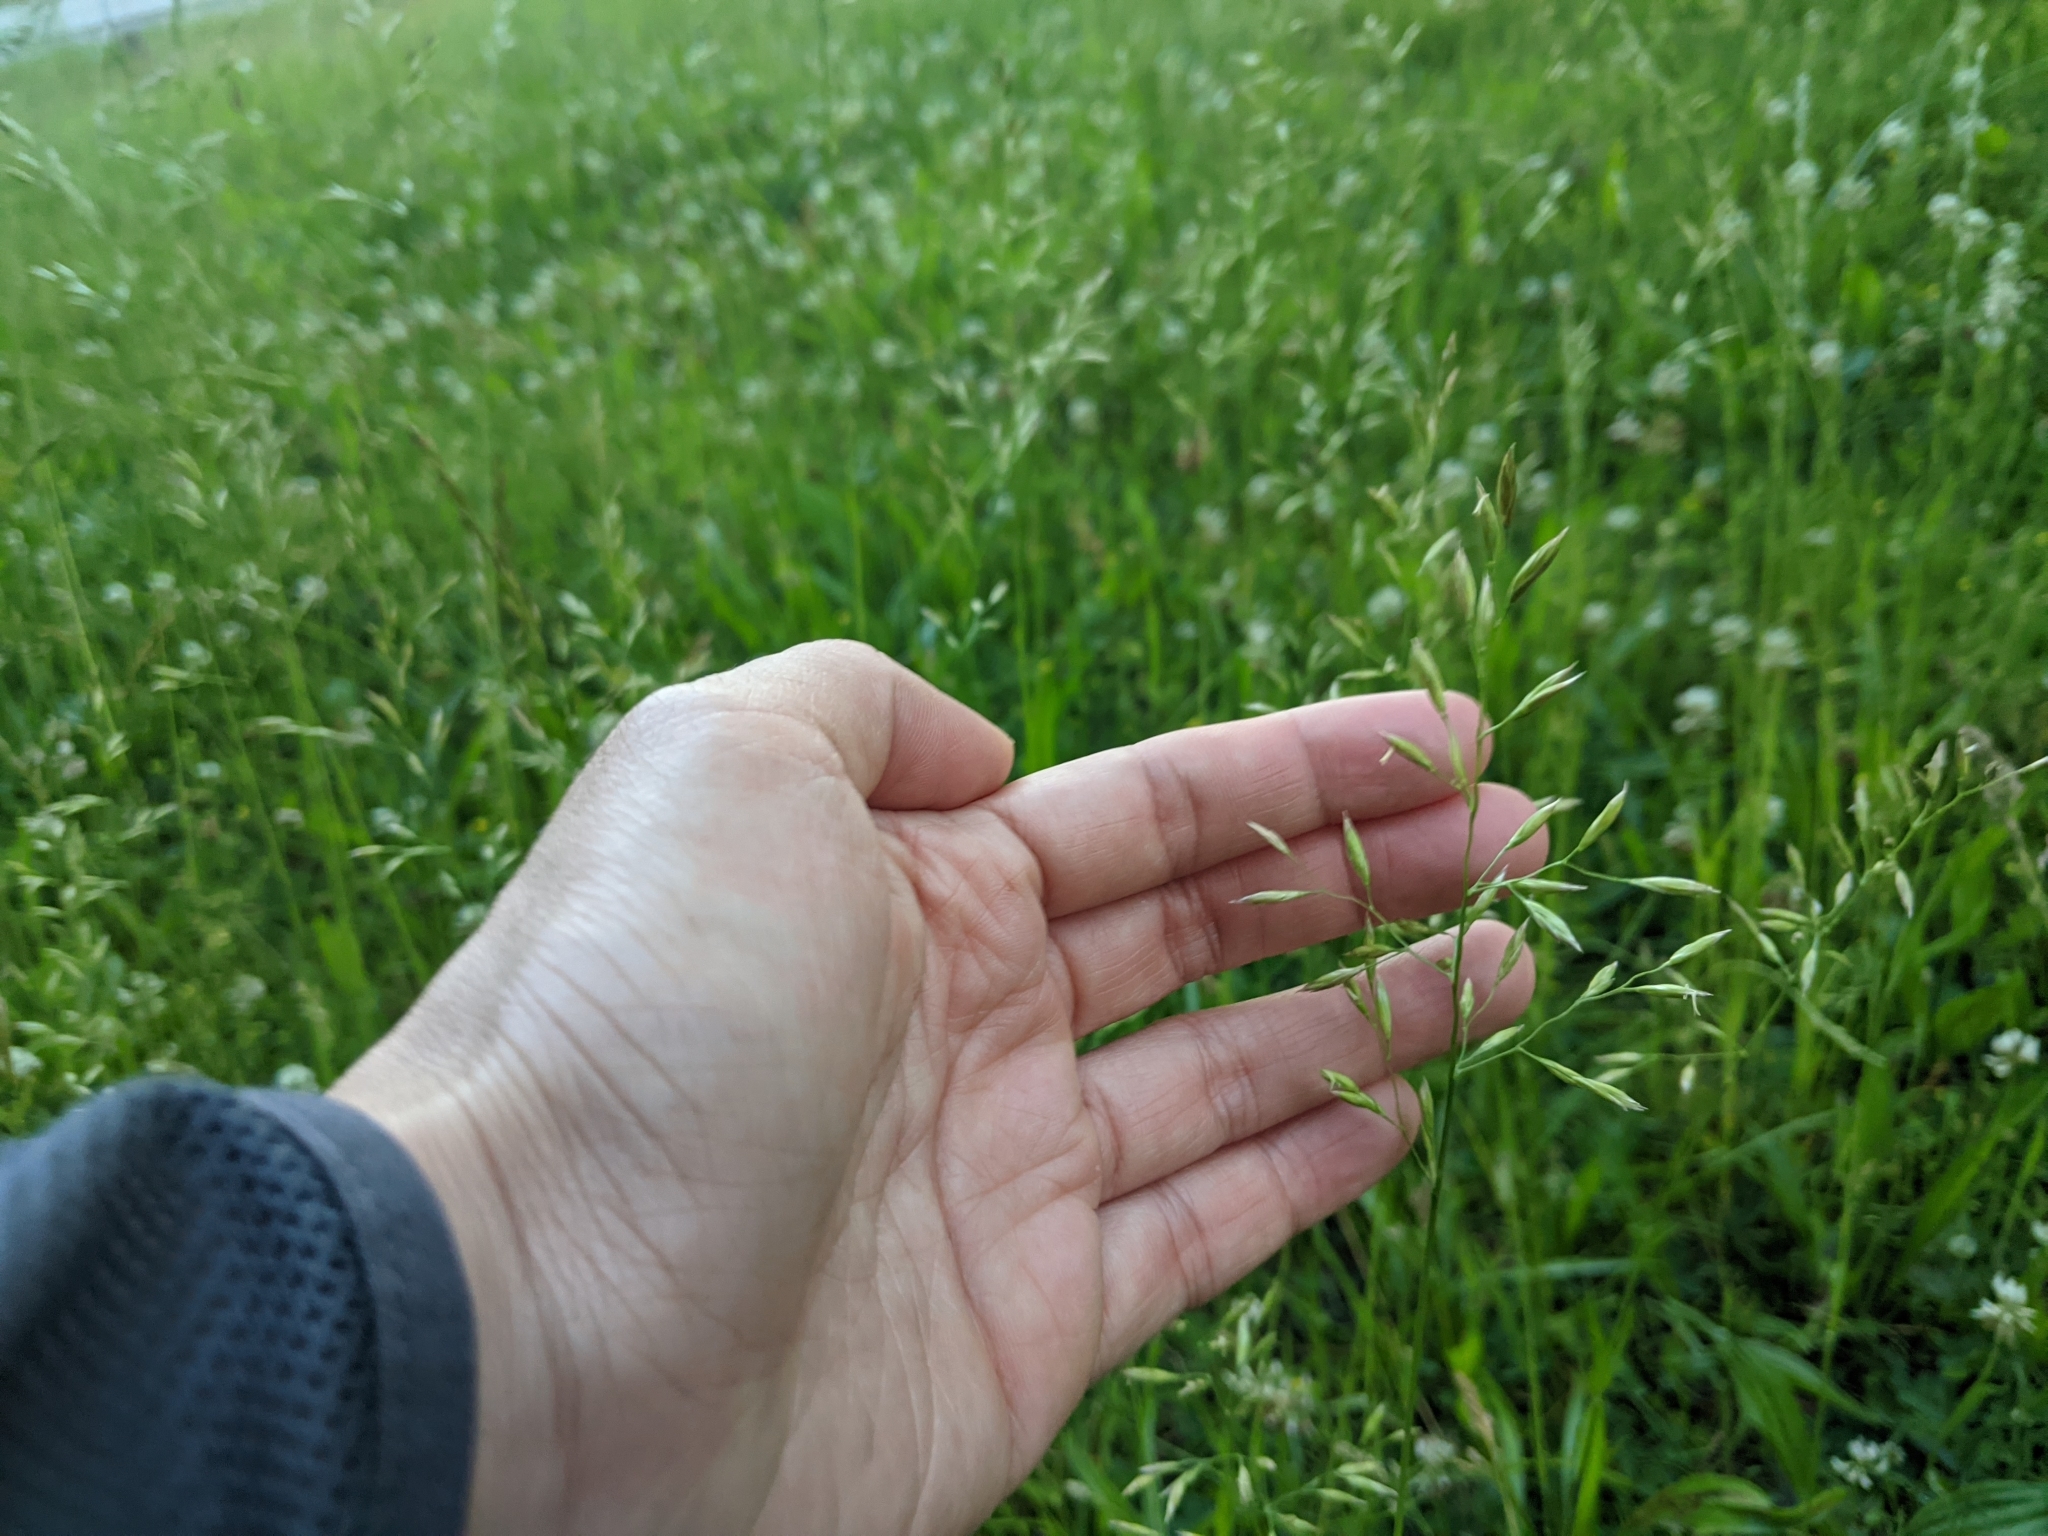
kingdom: Plantae
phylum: Tracheophyta
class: Liliopsida
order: Poales
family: Poaceae
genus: Bromus
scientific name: Bromus hordeaceus
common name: Soft brome
